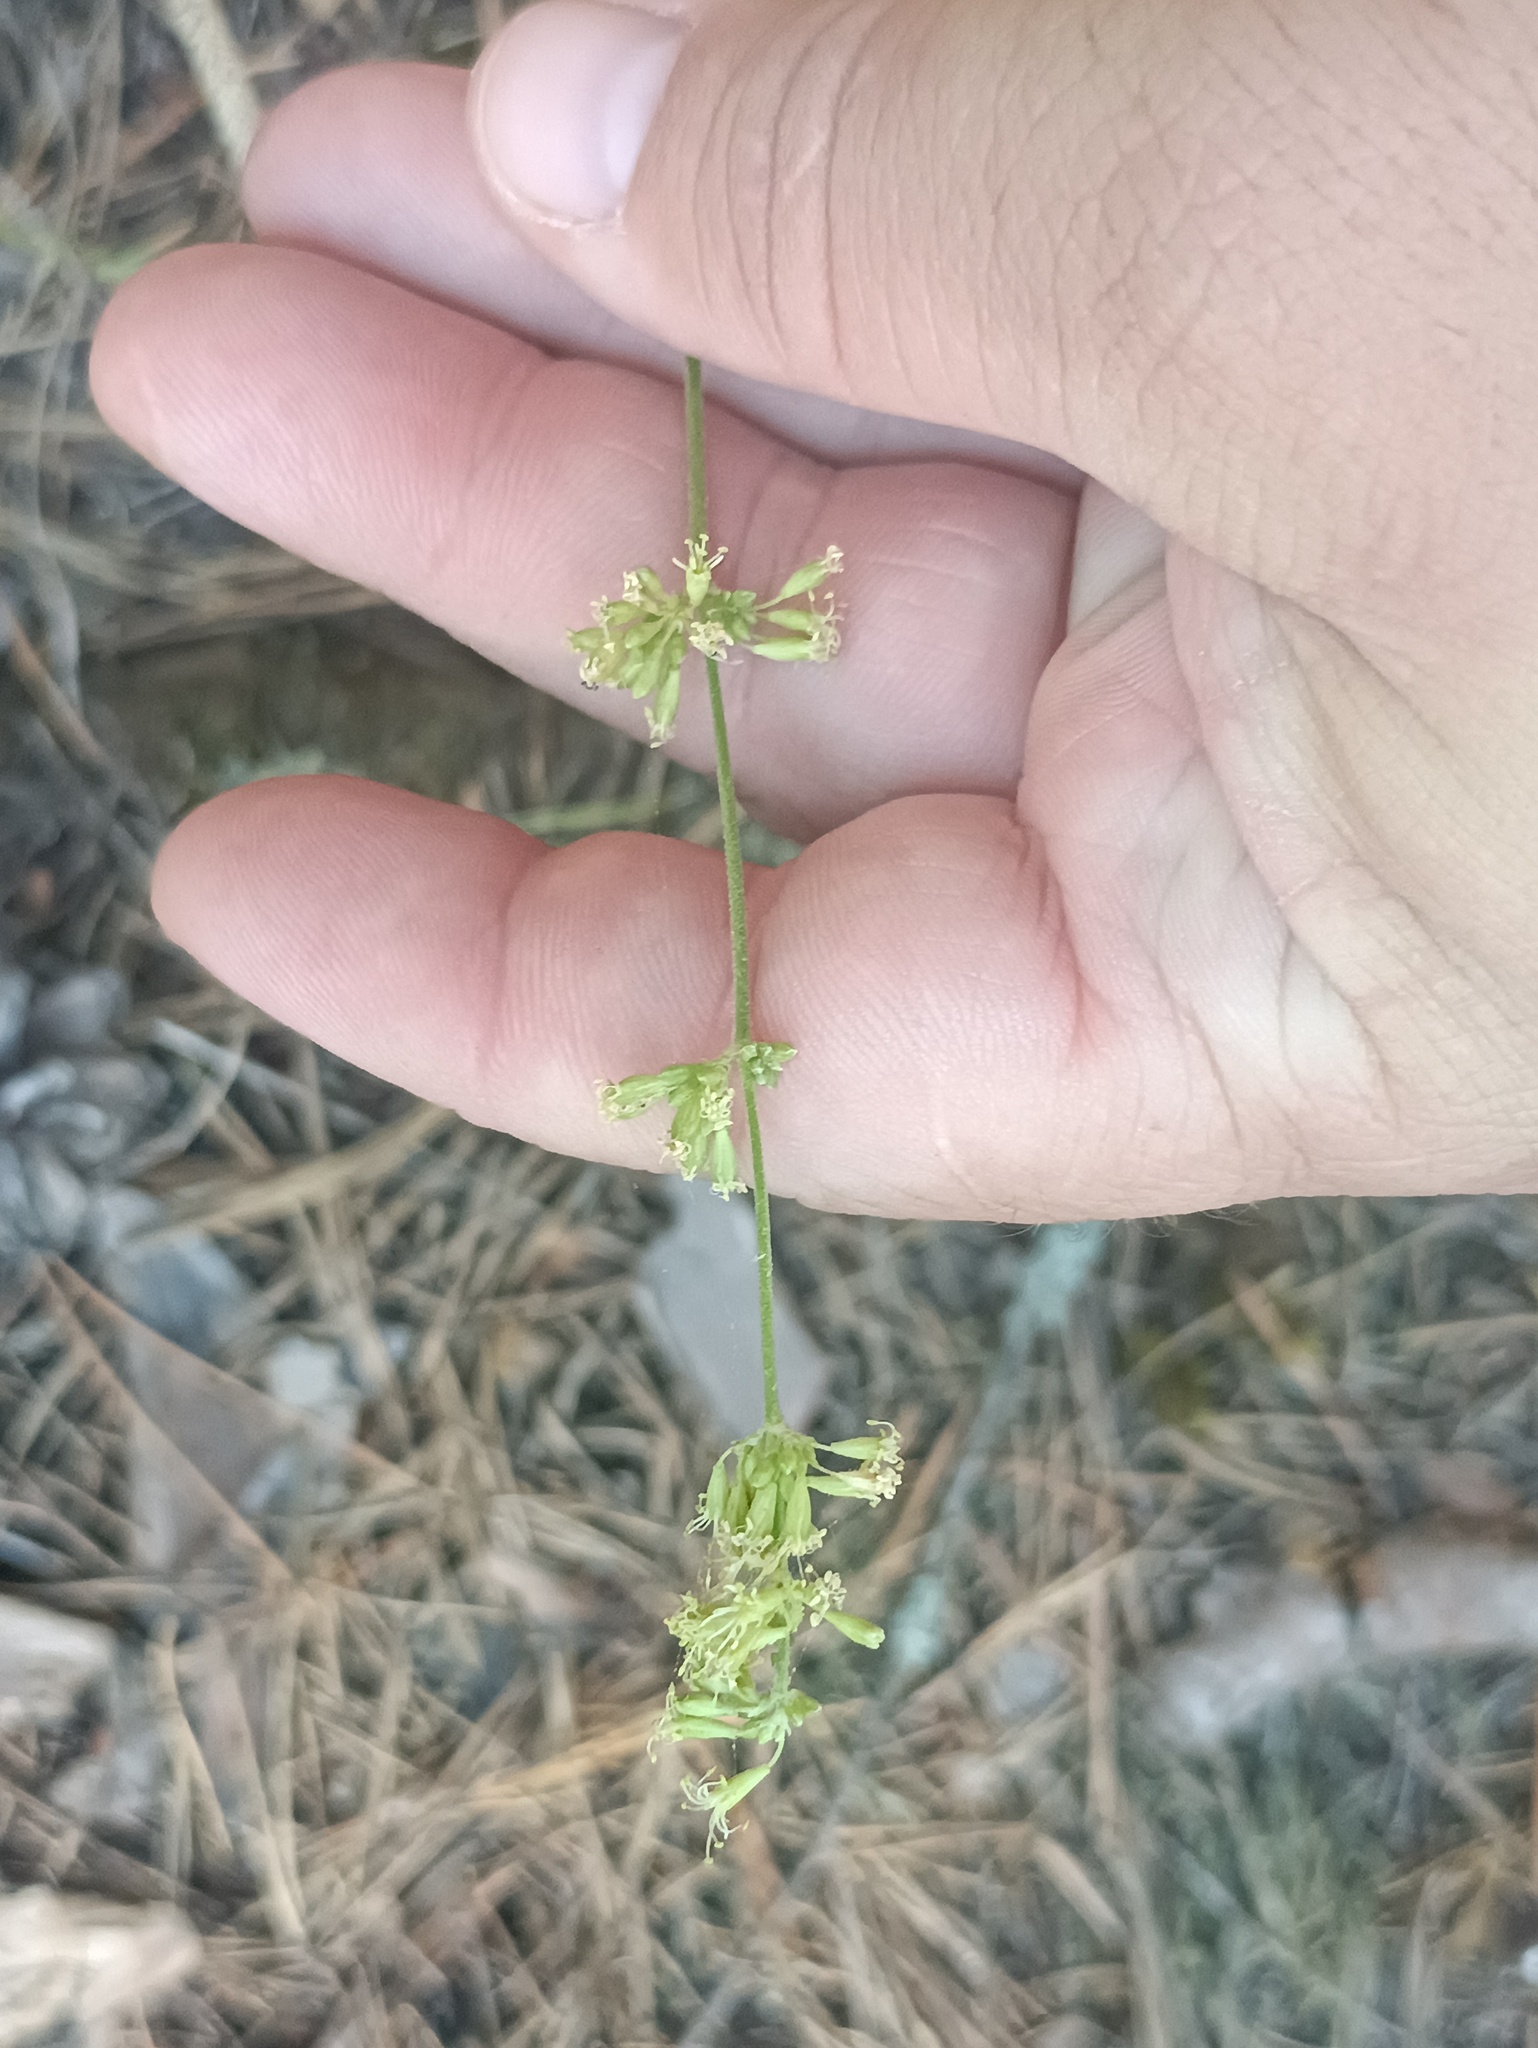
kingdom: Plantae
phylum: Tracheophyta
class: Magnoliopsida
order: Caryophyllales
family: Caryophyllaceae
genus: Silene
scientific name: Silene borysthenica
